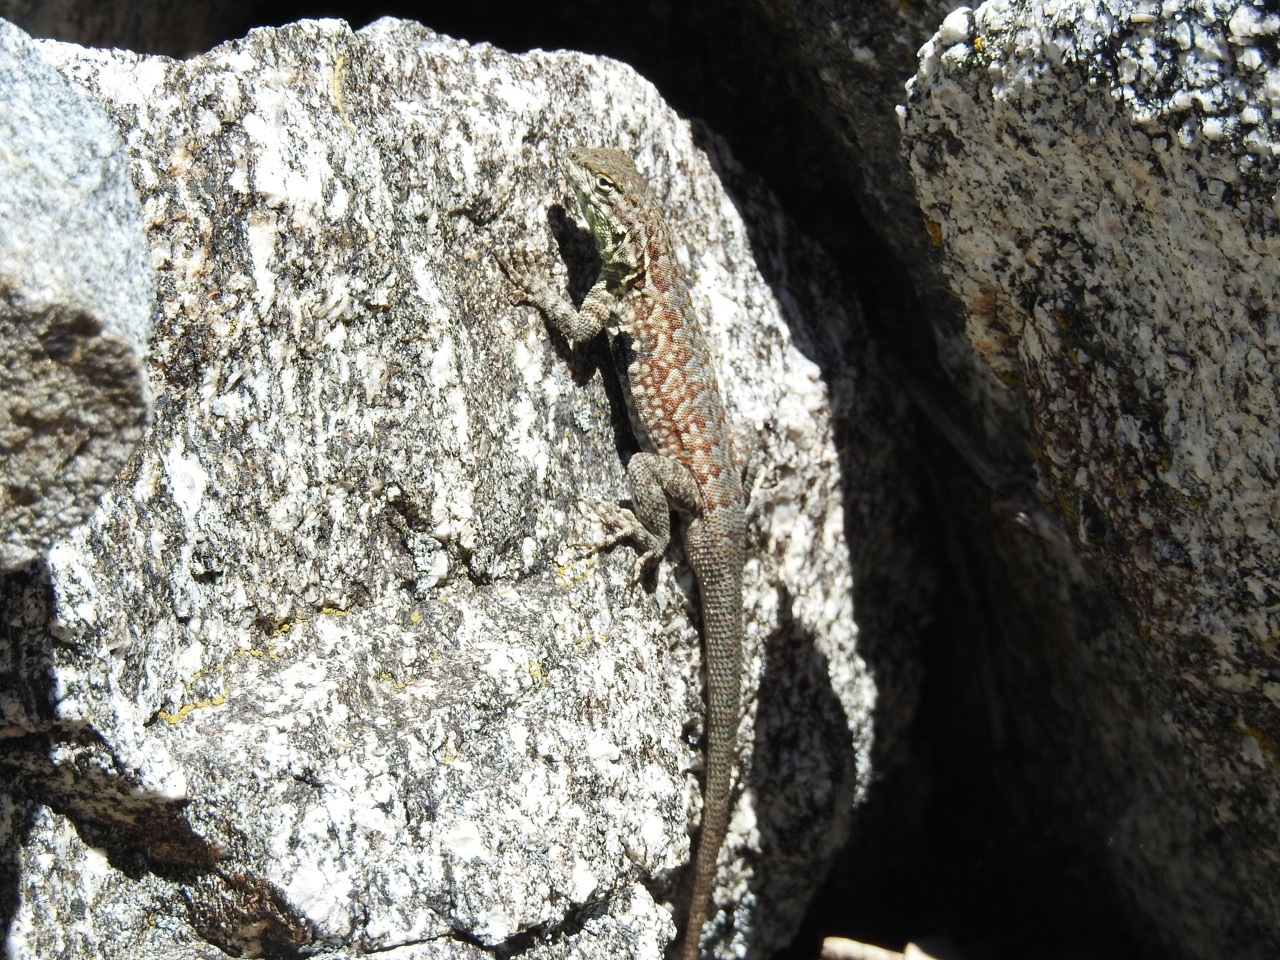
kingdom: Animalia
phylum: Chordata
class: Squamata
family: Phrynosomatidae
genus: Uta
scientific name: Uta stansburiana
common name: Side-blotched lizard
